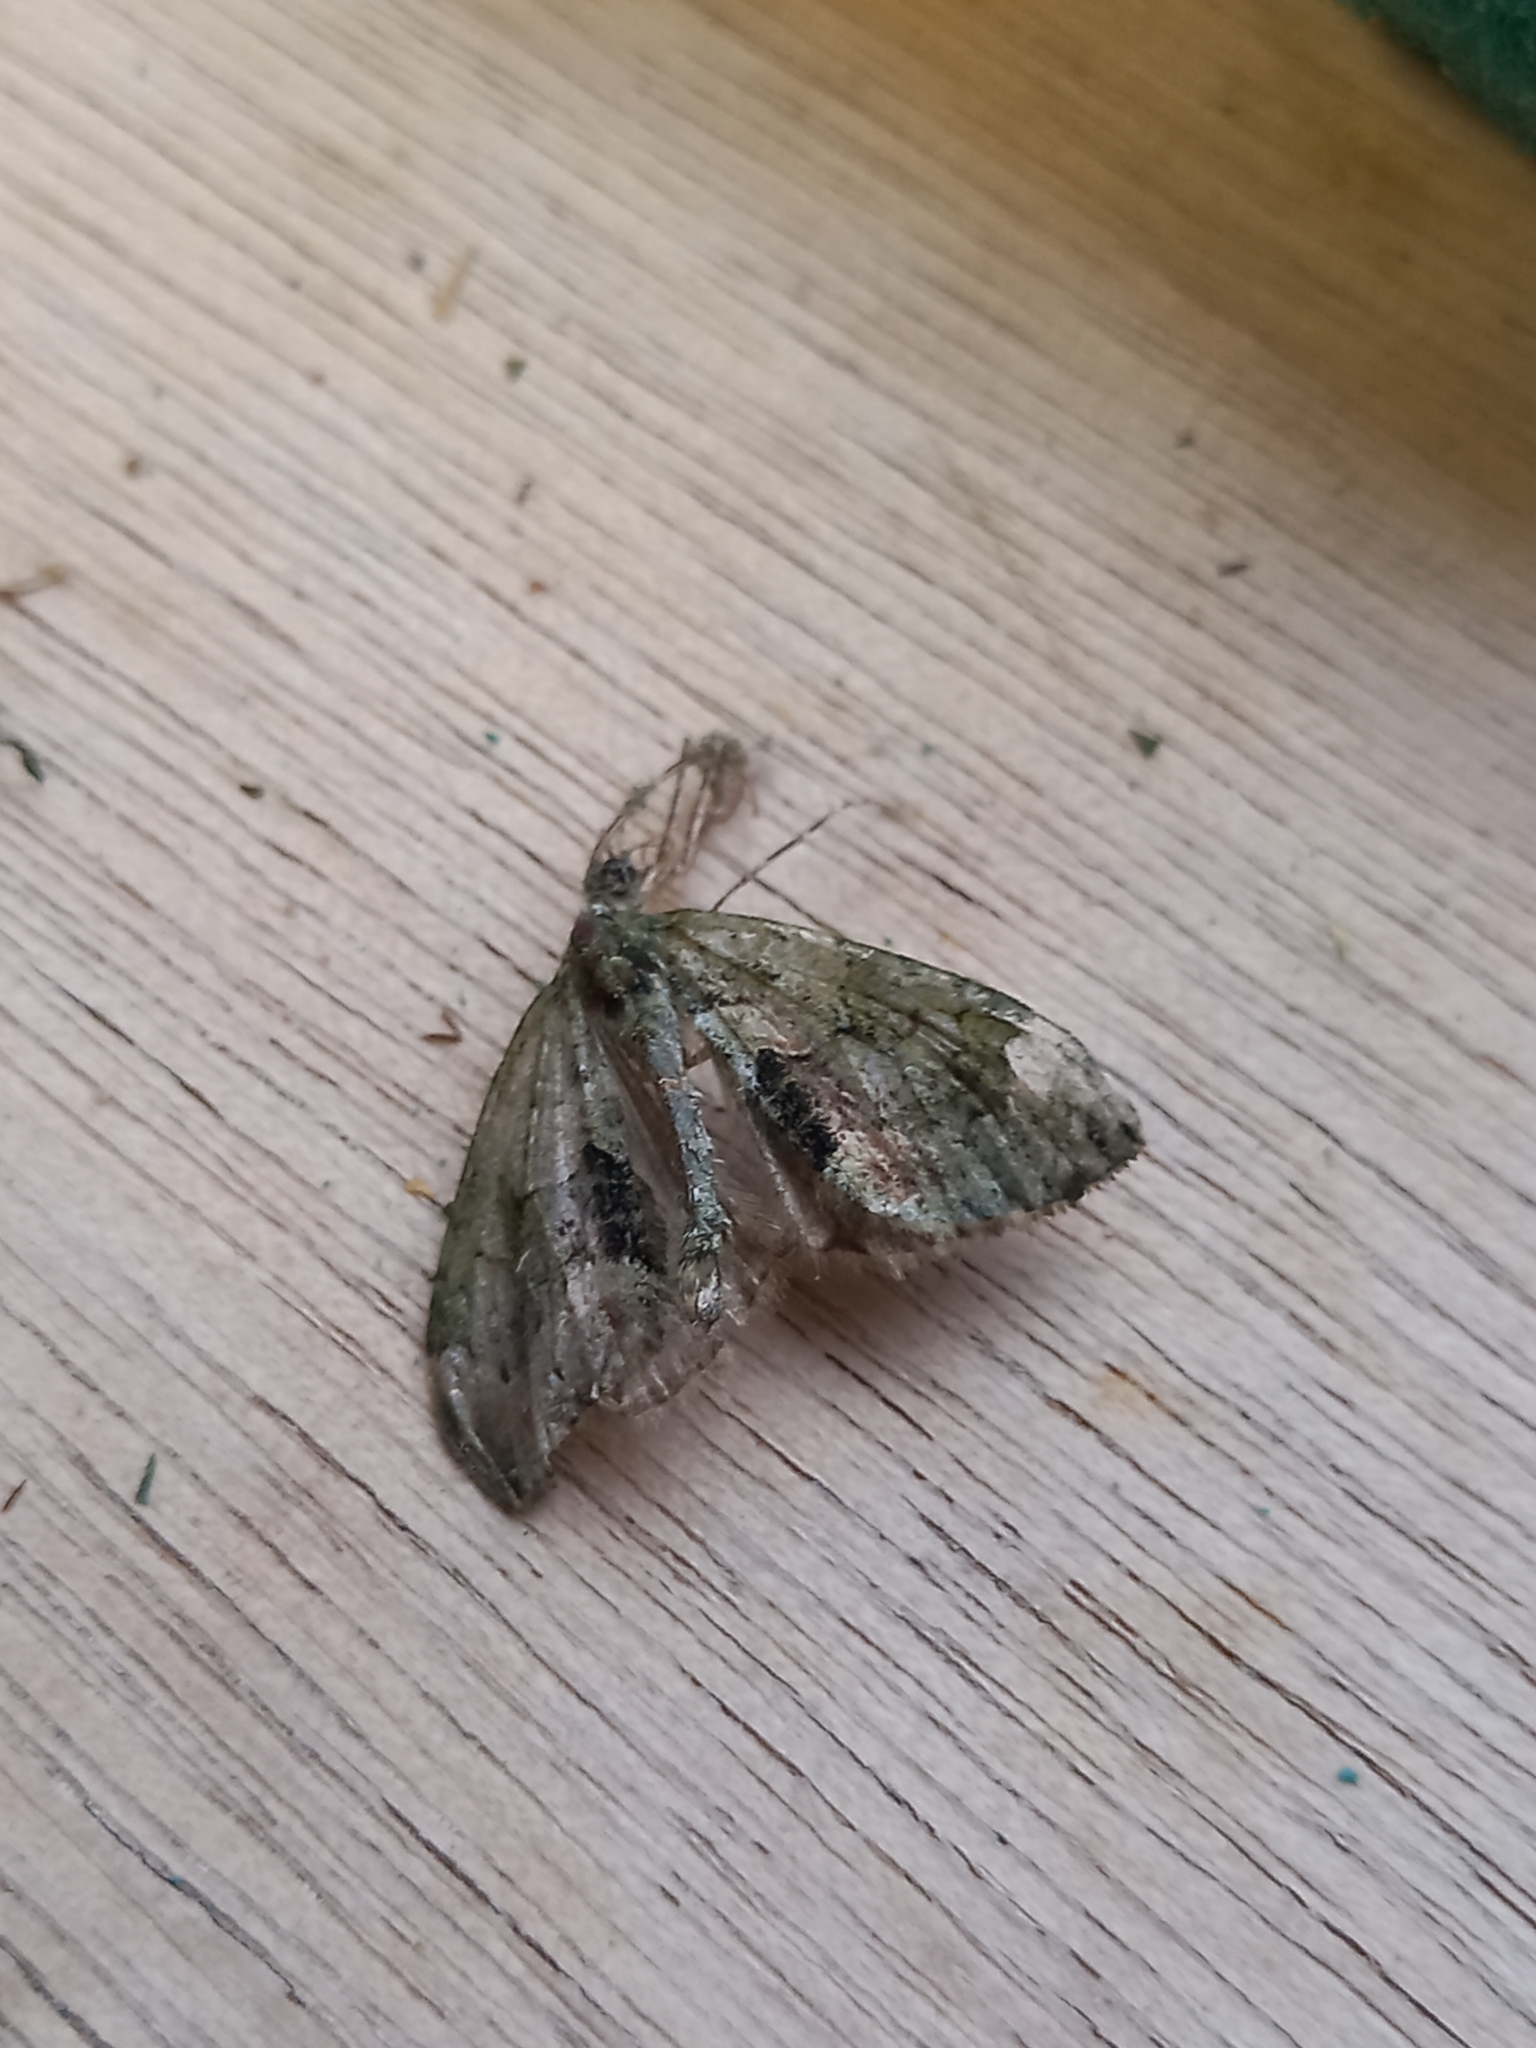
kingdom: Animalia
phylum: Arthropoda
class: Insecta
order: Lepidoptera
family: Geometridae
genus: Chloroclysta
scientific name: Chloroclysta siterata
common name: Red-green carpet
